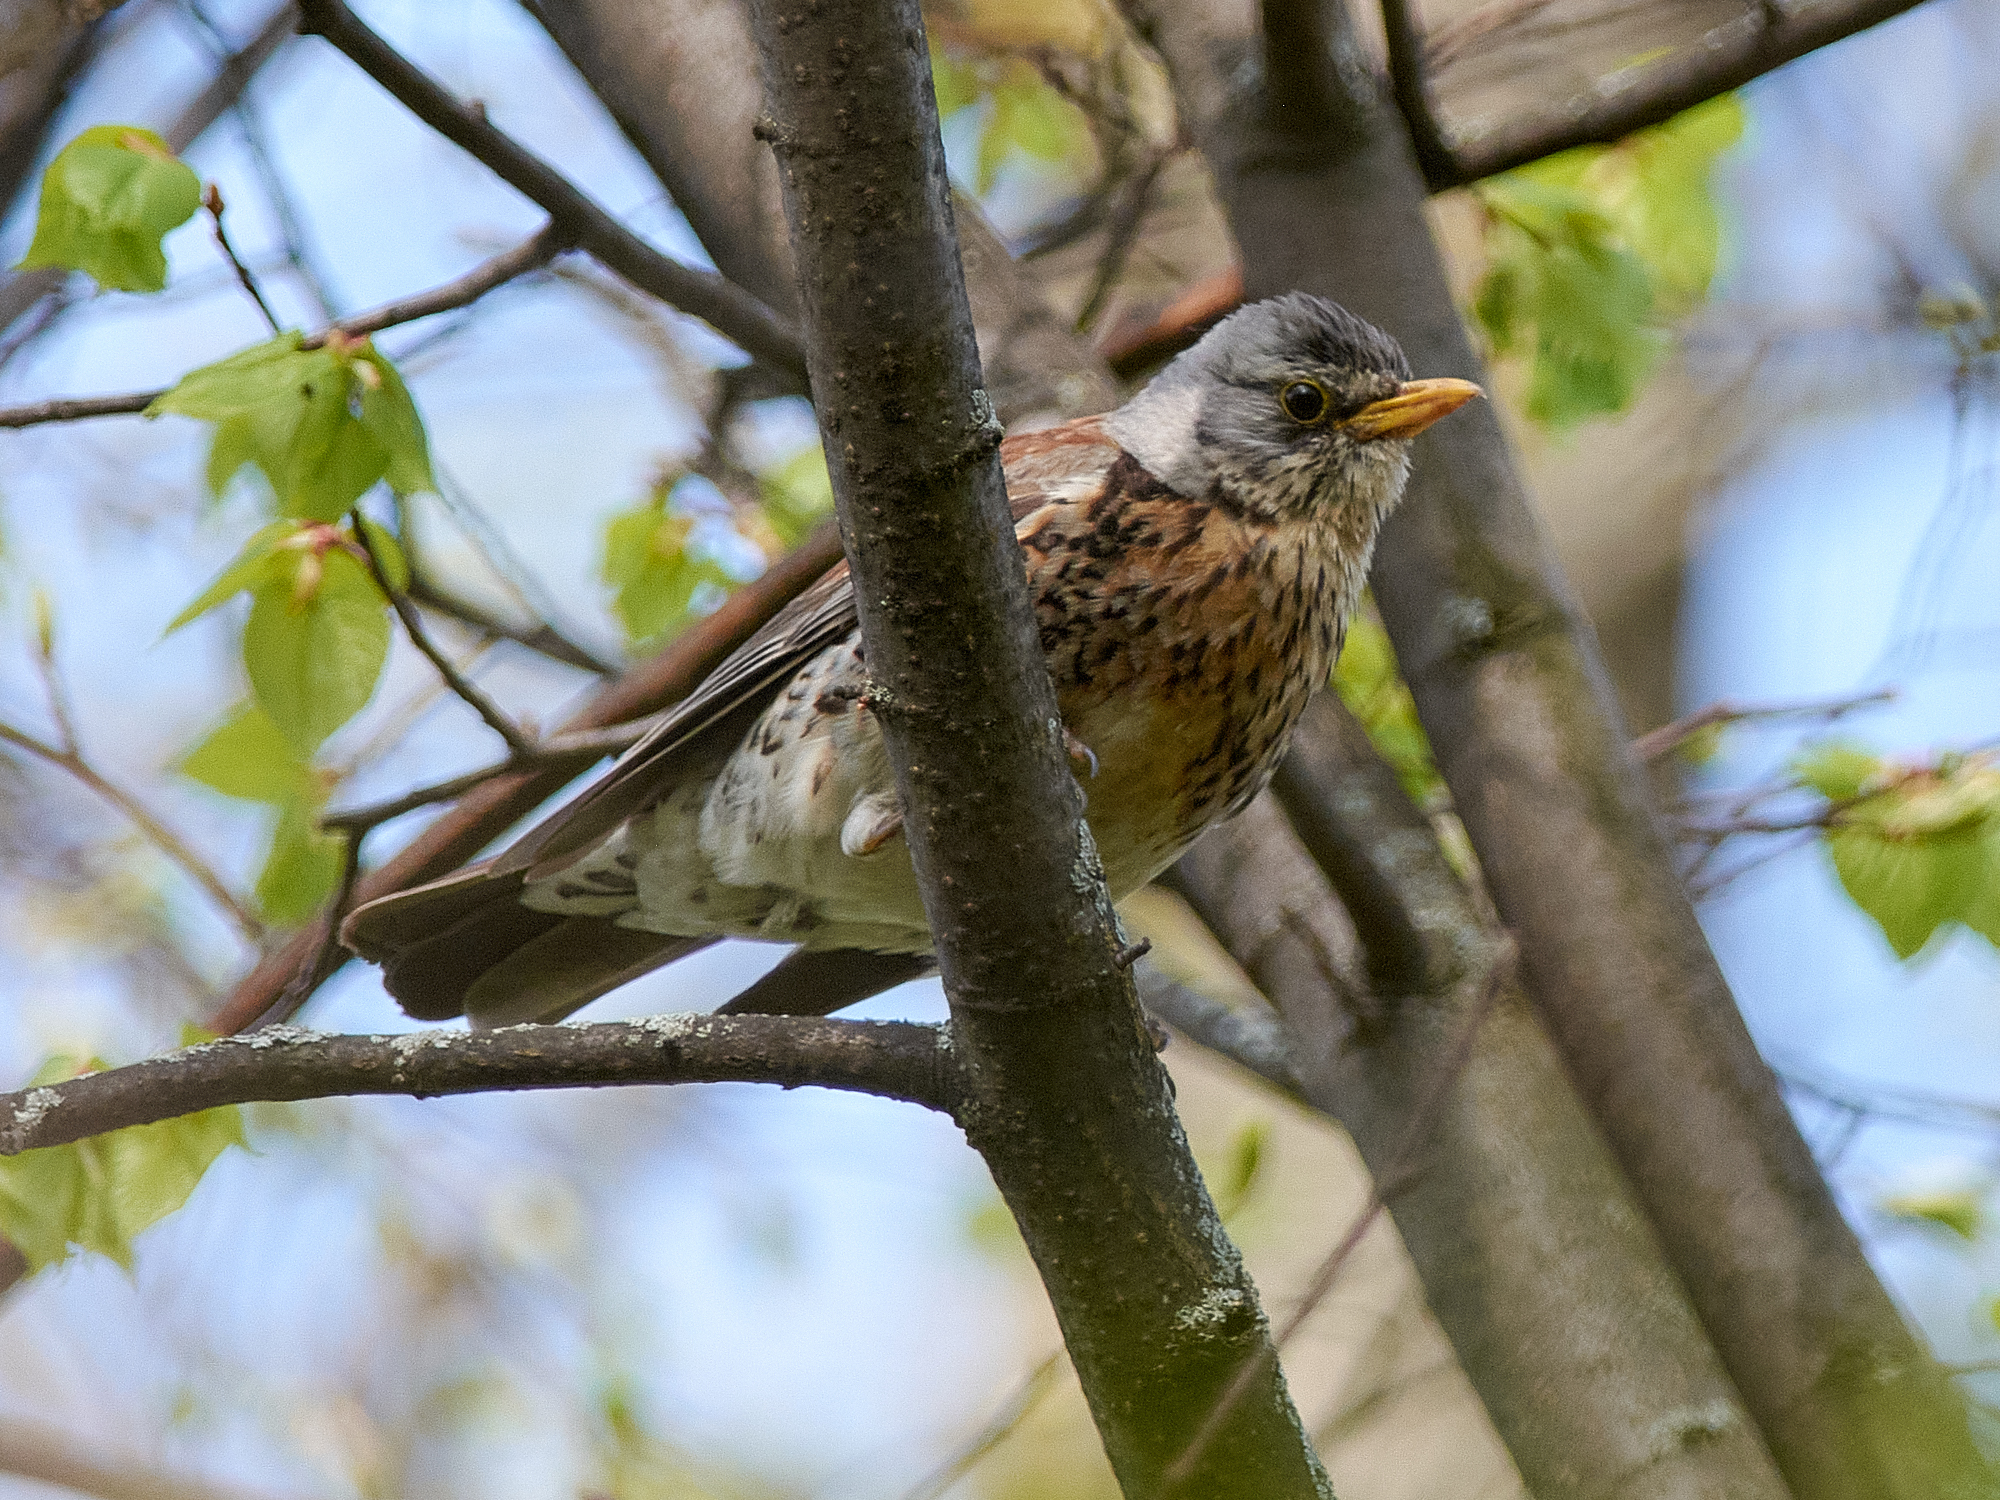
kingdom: Animalia
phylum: Chordata
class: Aves
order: Passeriformes
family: Turdidae
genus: Turdus
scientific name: Turdus pilaris
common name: Fieldfare
